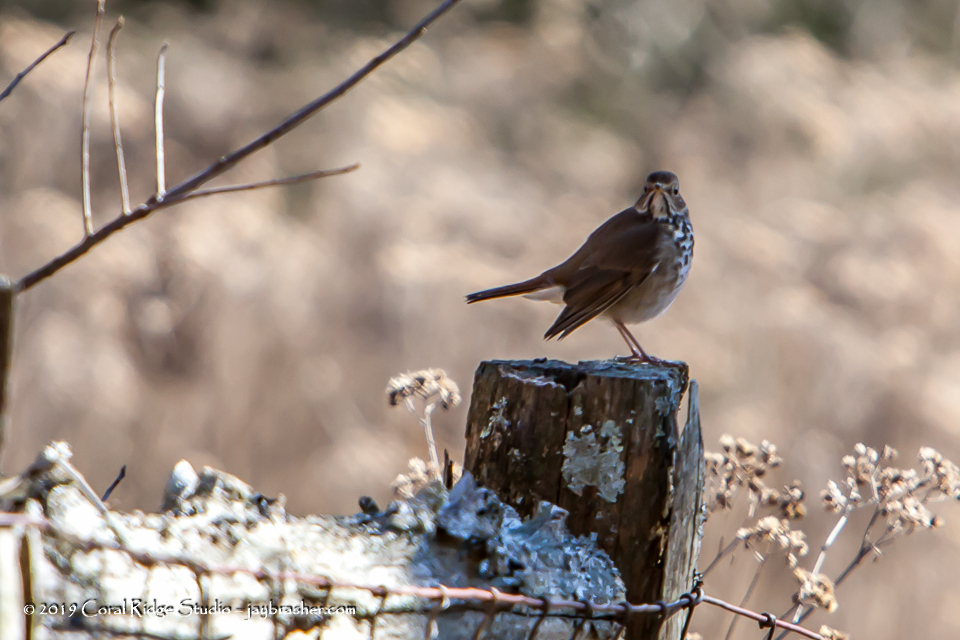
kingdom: Animalia
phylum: Chordata
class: Aves
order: Passeriformes
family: Turdidae
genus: Catharus
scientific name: Catharus guttatus
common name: Hermit thrush
